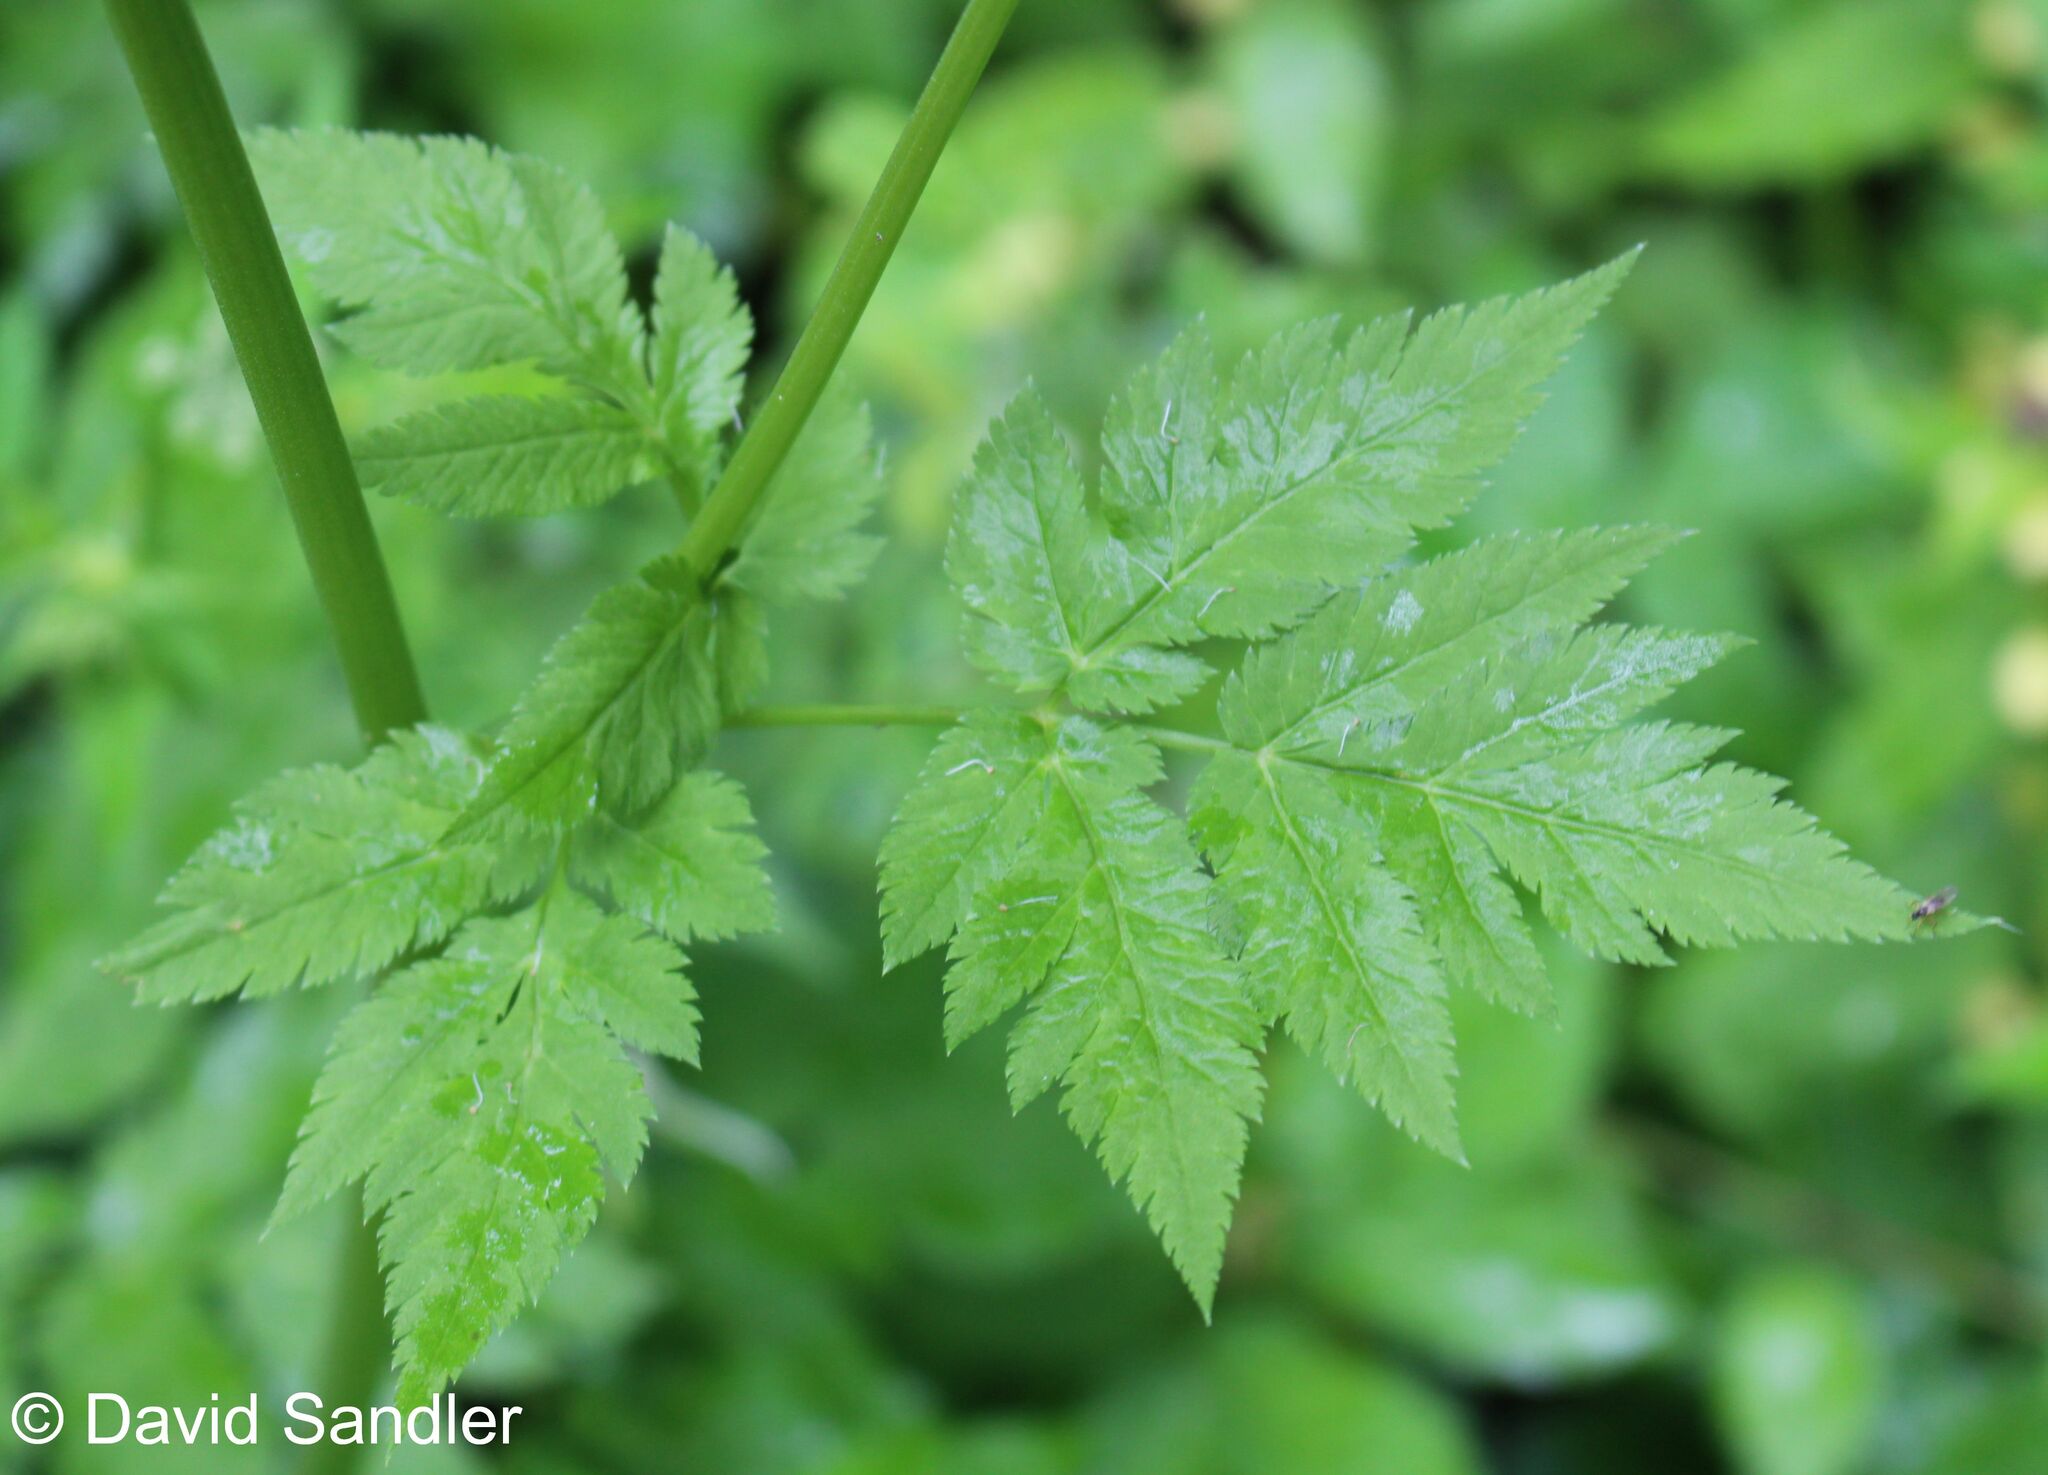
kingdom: Plantae
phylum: Tracheophyta
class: Magnoliopsida
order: Apiales
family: Apiaceae
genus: Chaerophyllum
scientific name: Chaerophyllum hirsutum
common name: Hairy chervil
